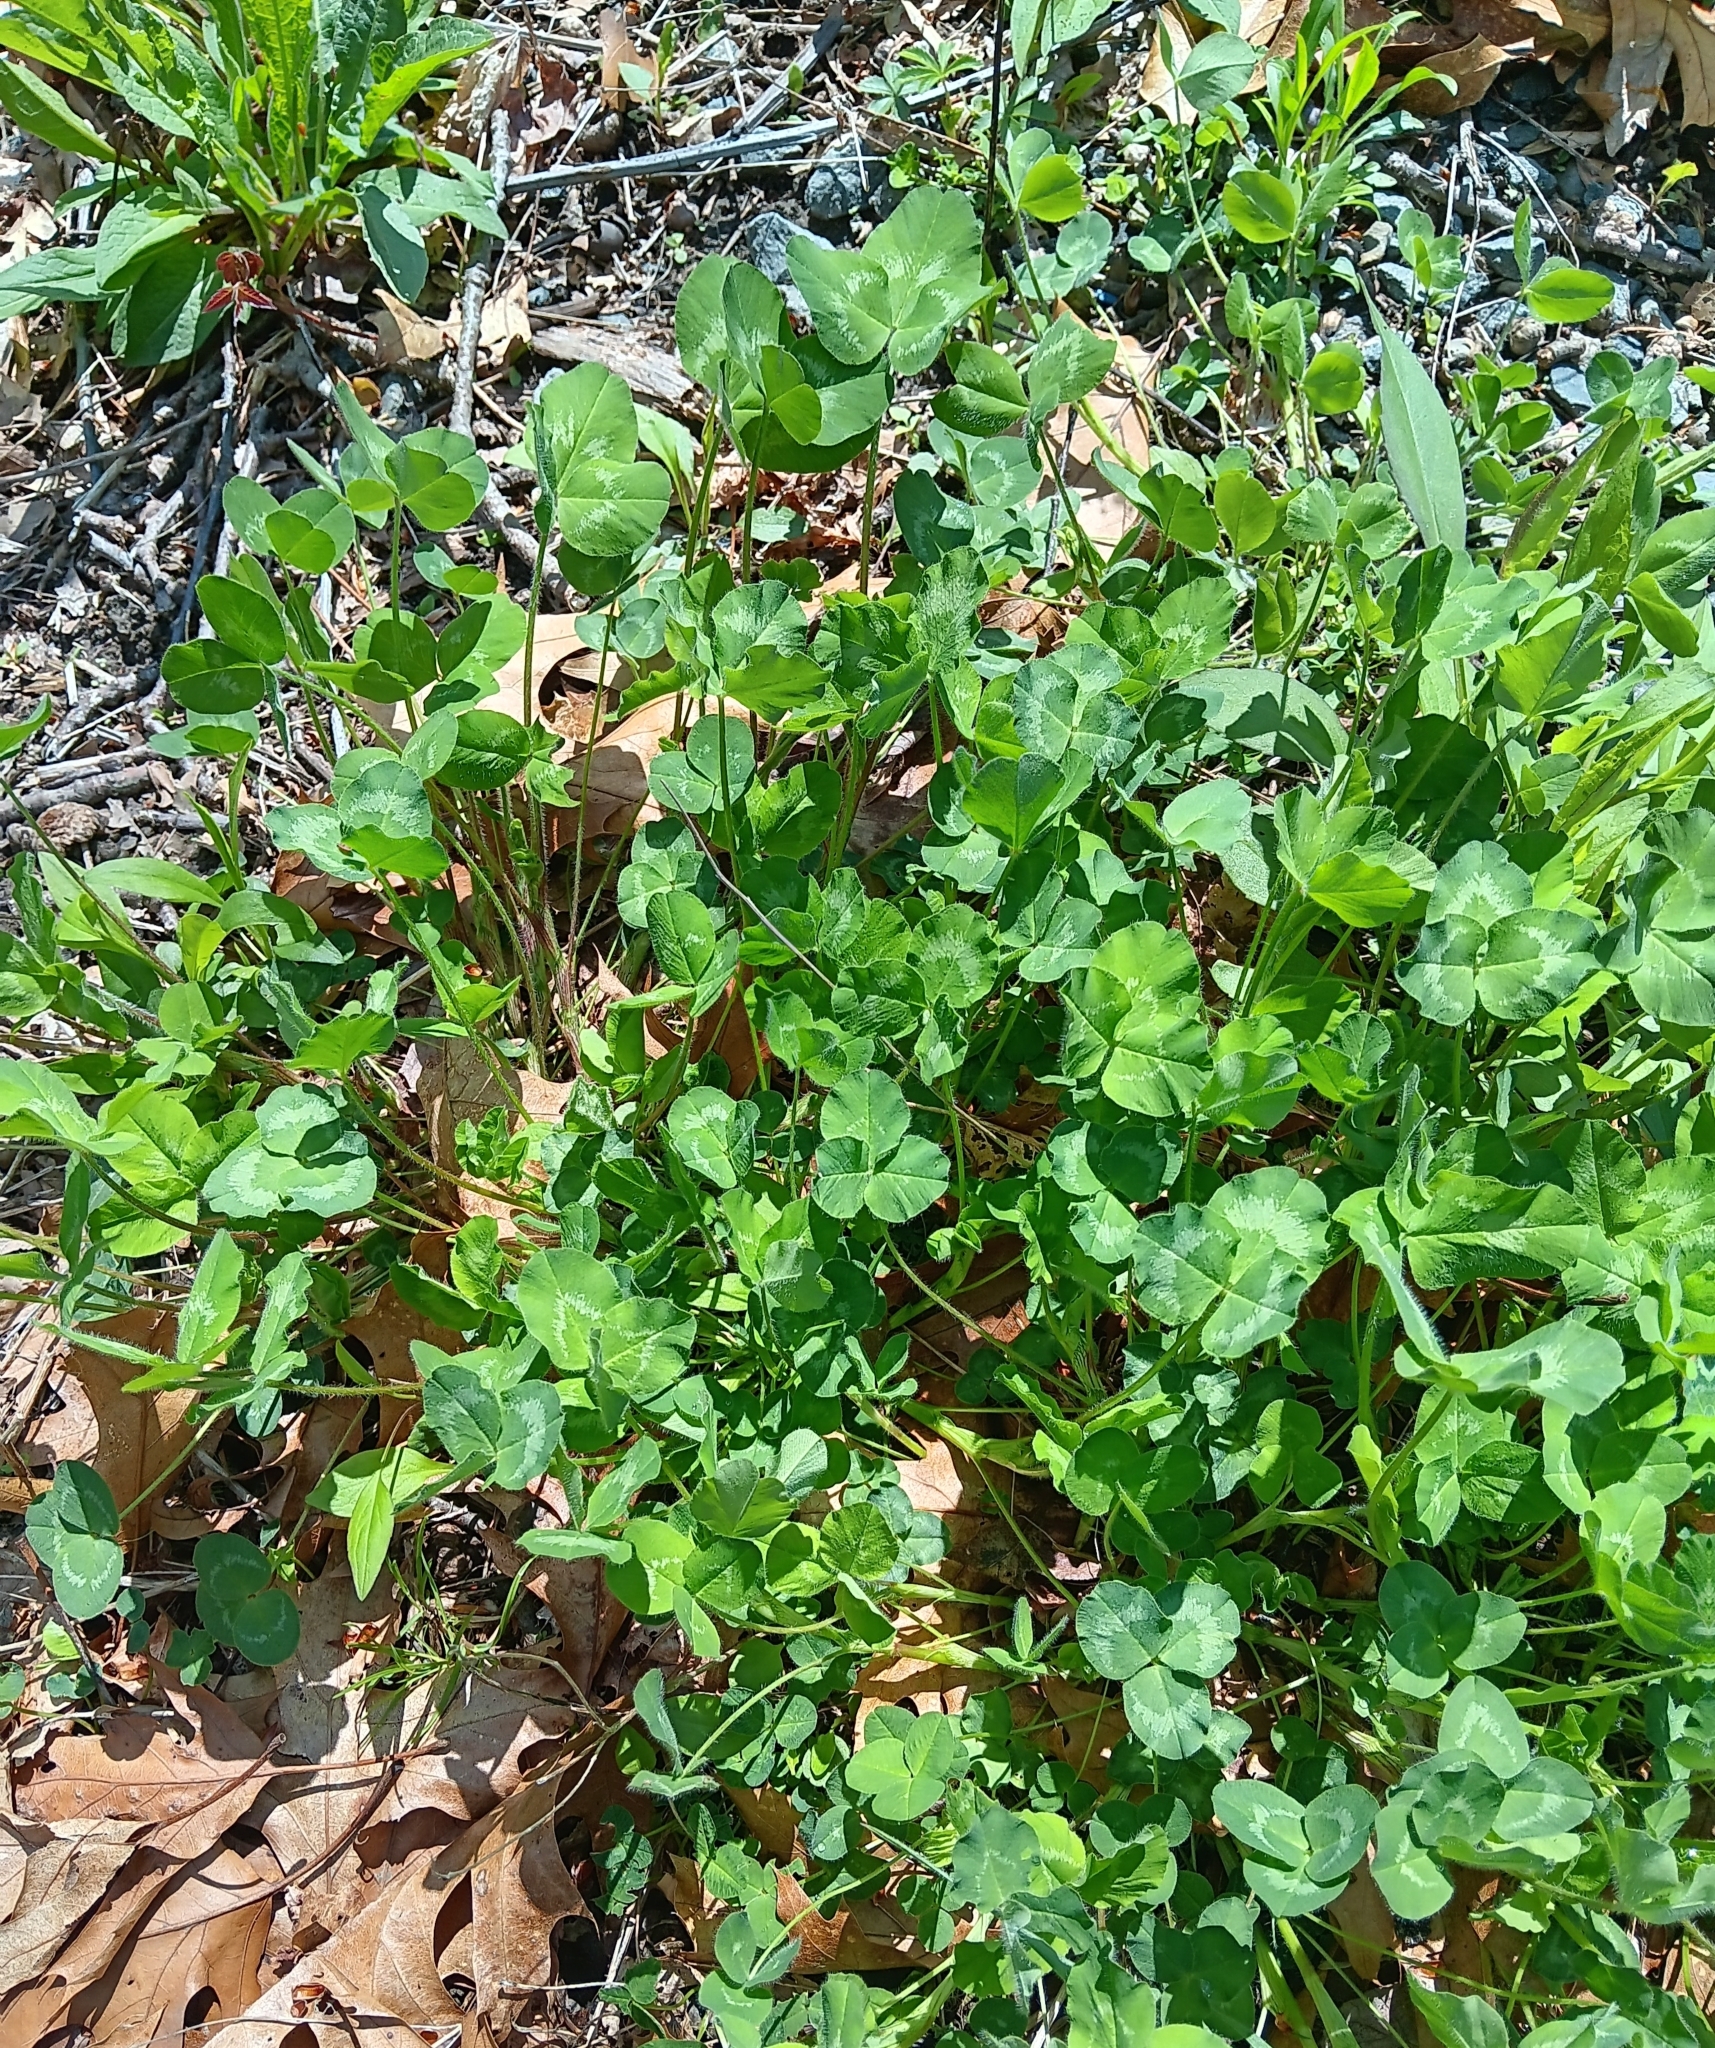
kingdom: Plantae
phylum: Tracheophyta
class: Magnoliopsida
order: Fabales
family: Fabaceae
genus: Trifolium
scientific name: Trifolium repens
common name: White clover
